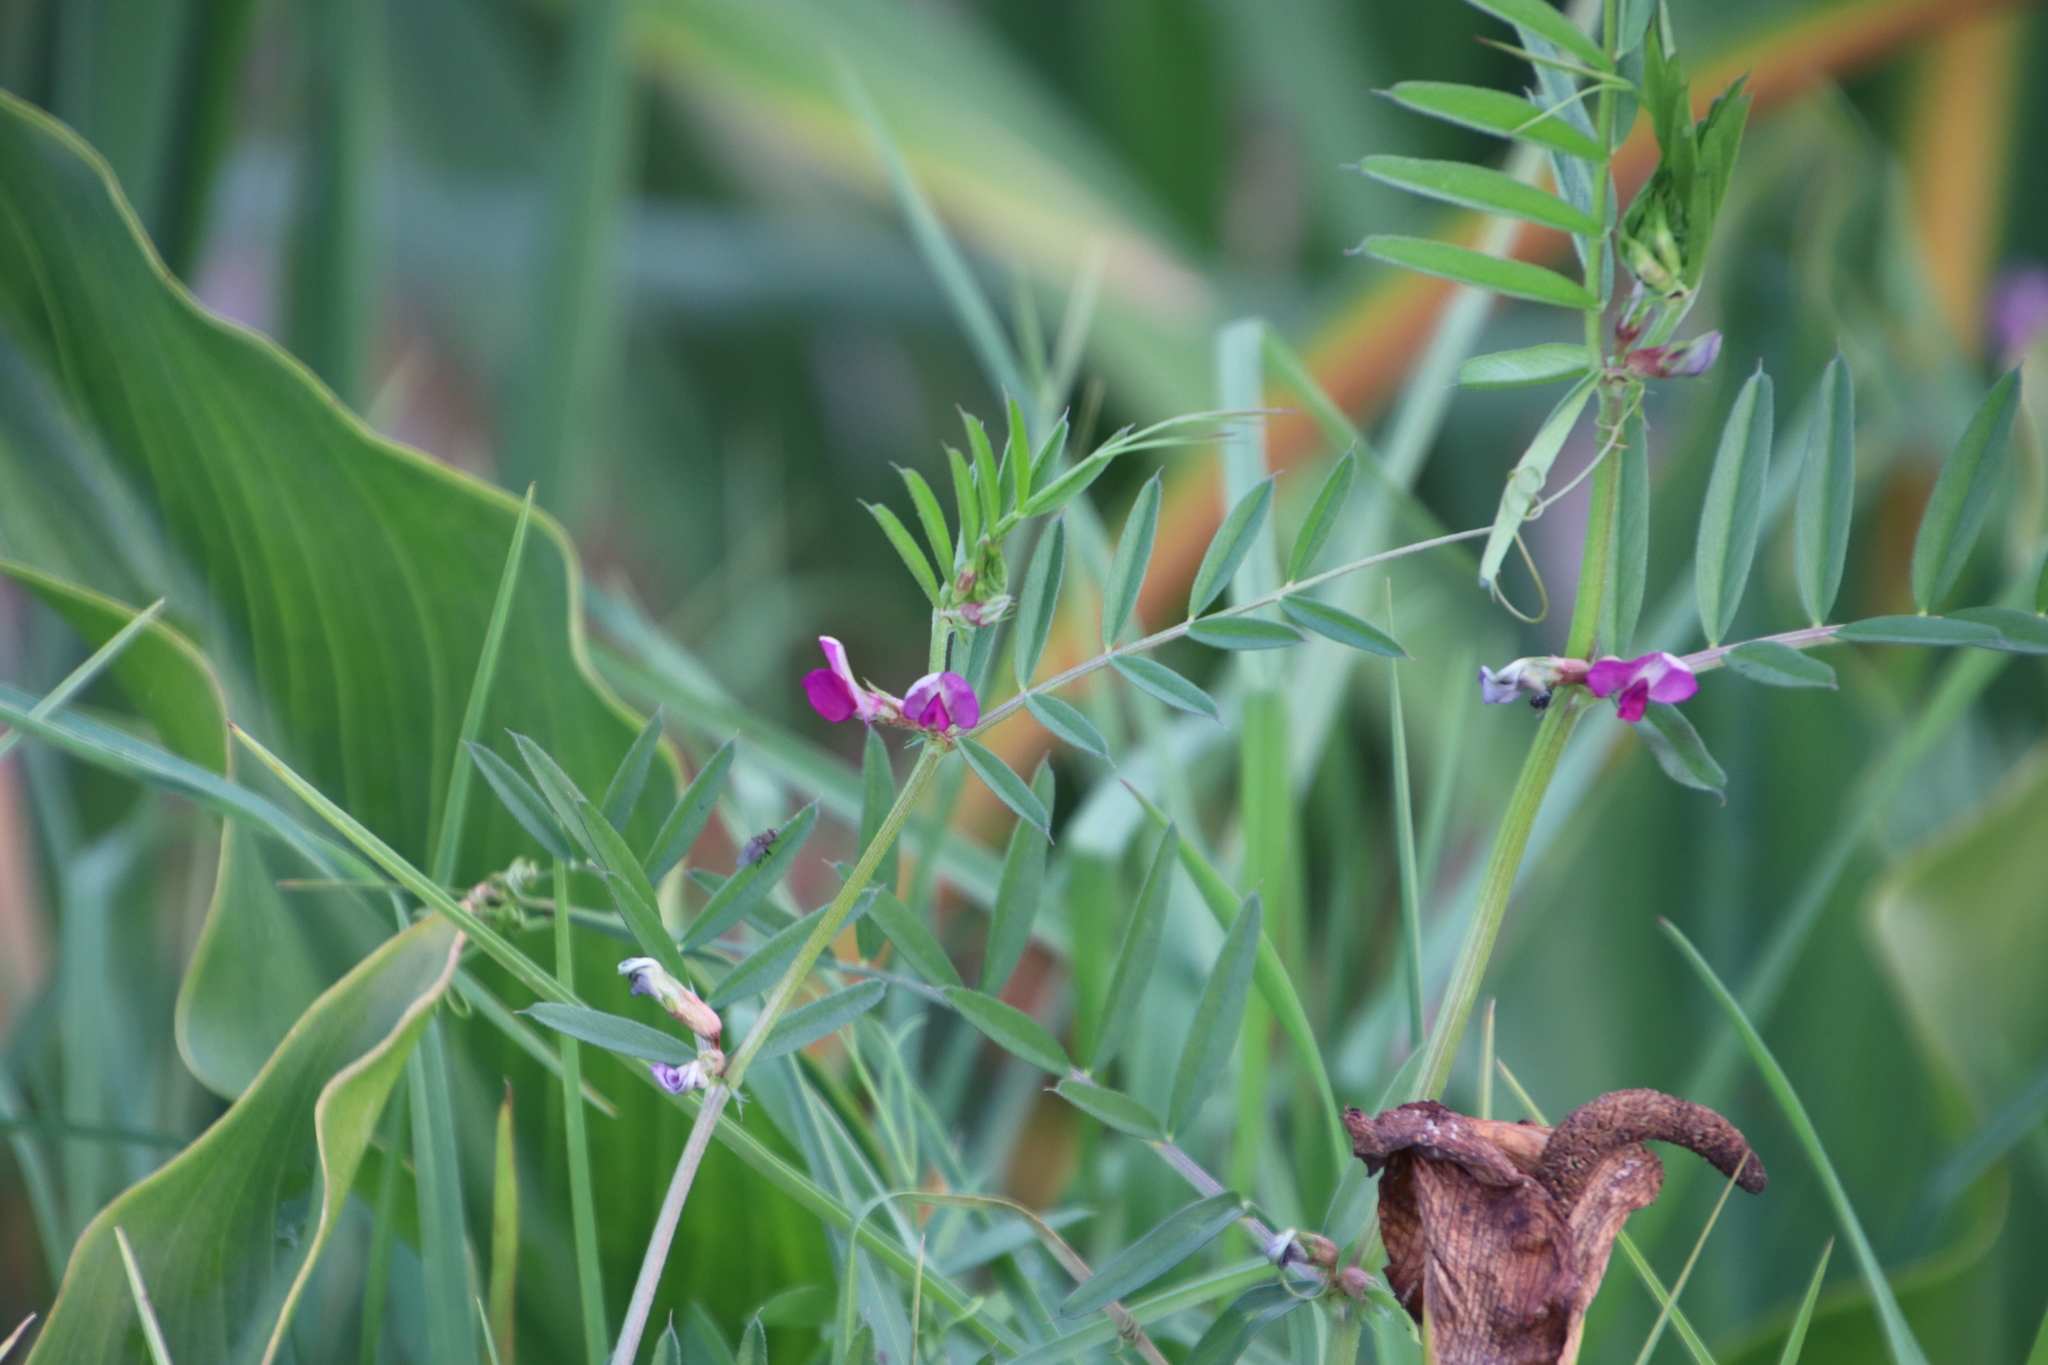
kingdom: Plantae
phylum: Tracheophyta
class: Magnoliopsida
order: Fabales
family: Fabaceae
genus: Vicia
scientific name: Vicia sativa
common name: Garden vetch
